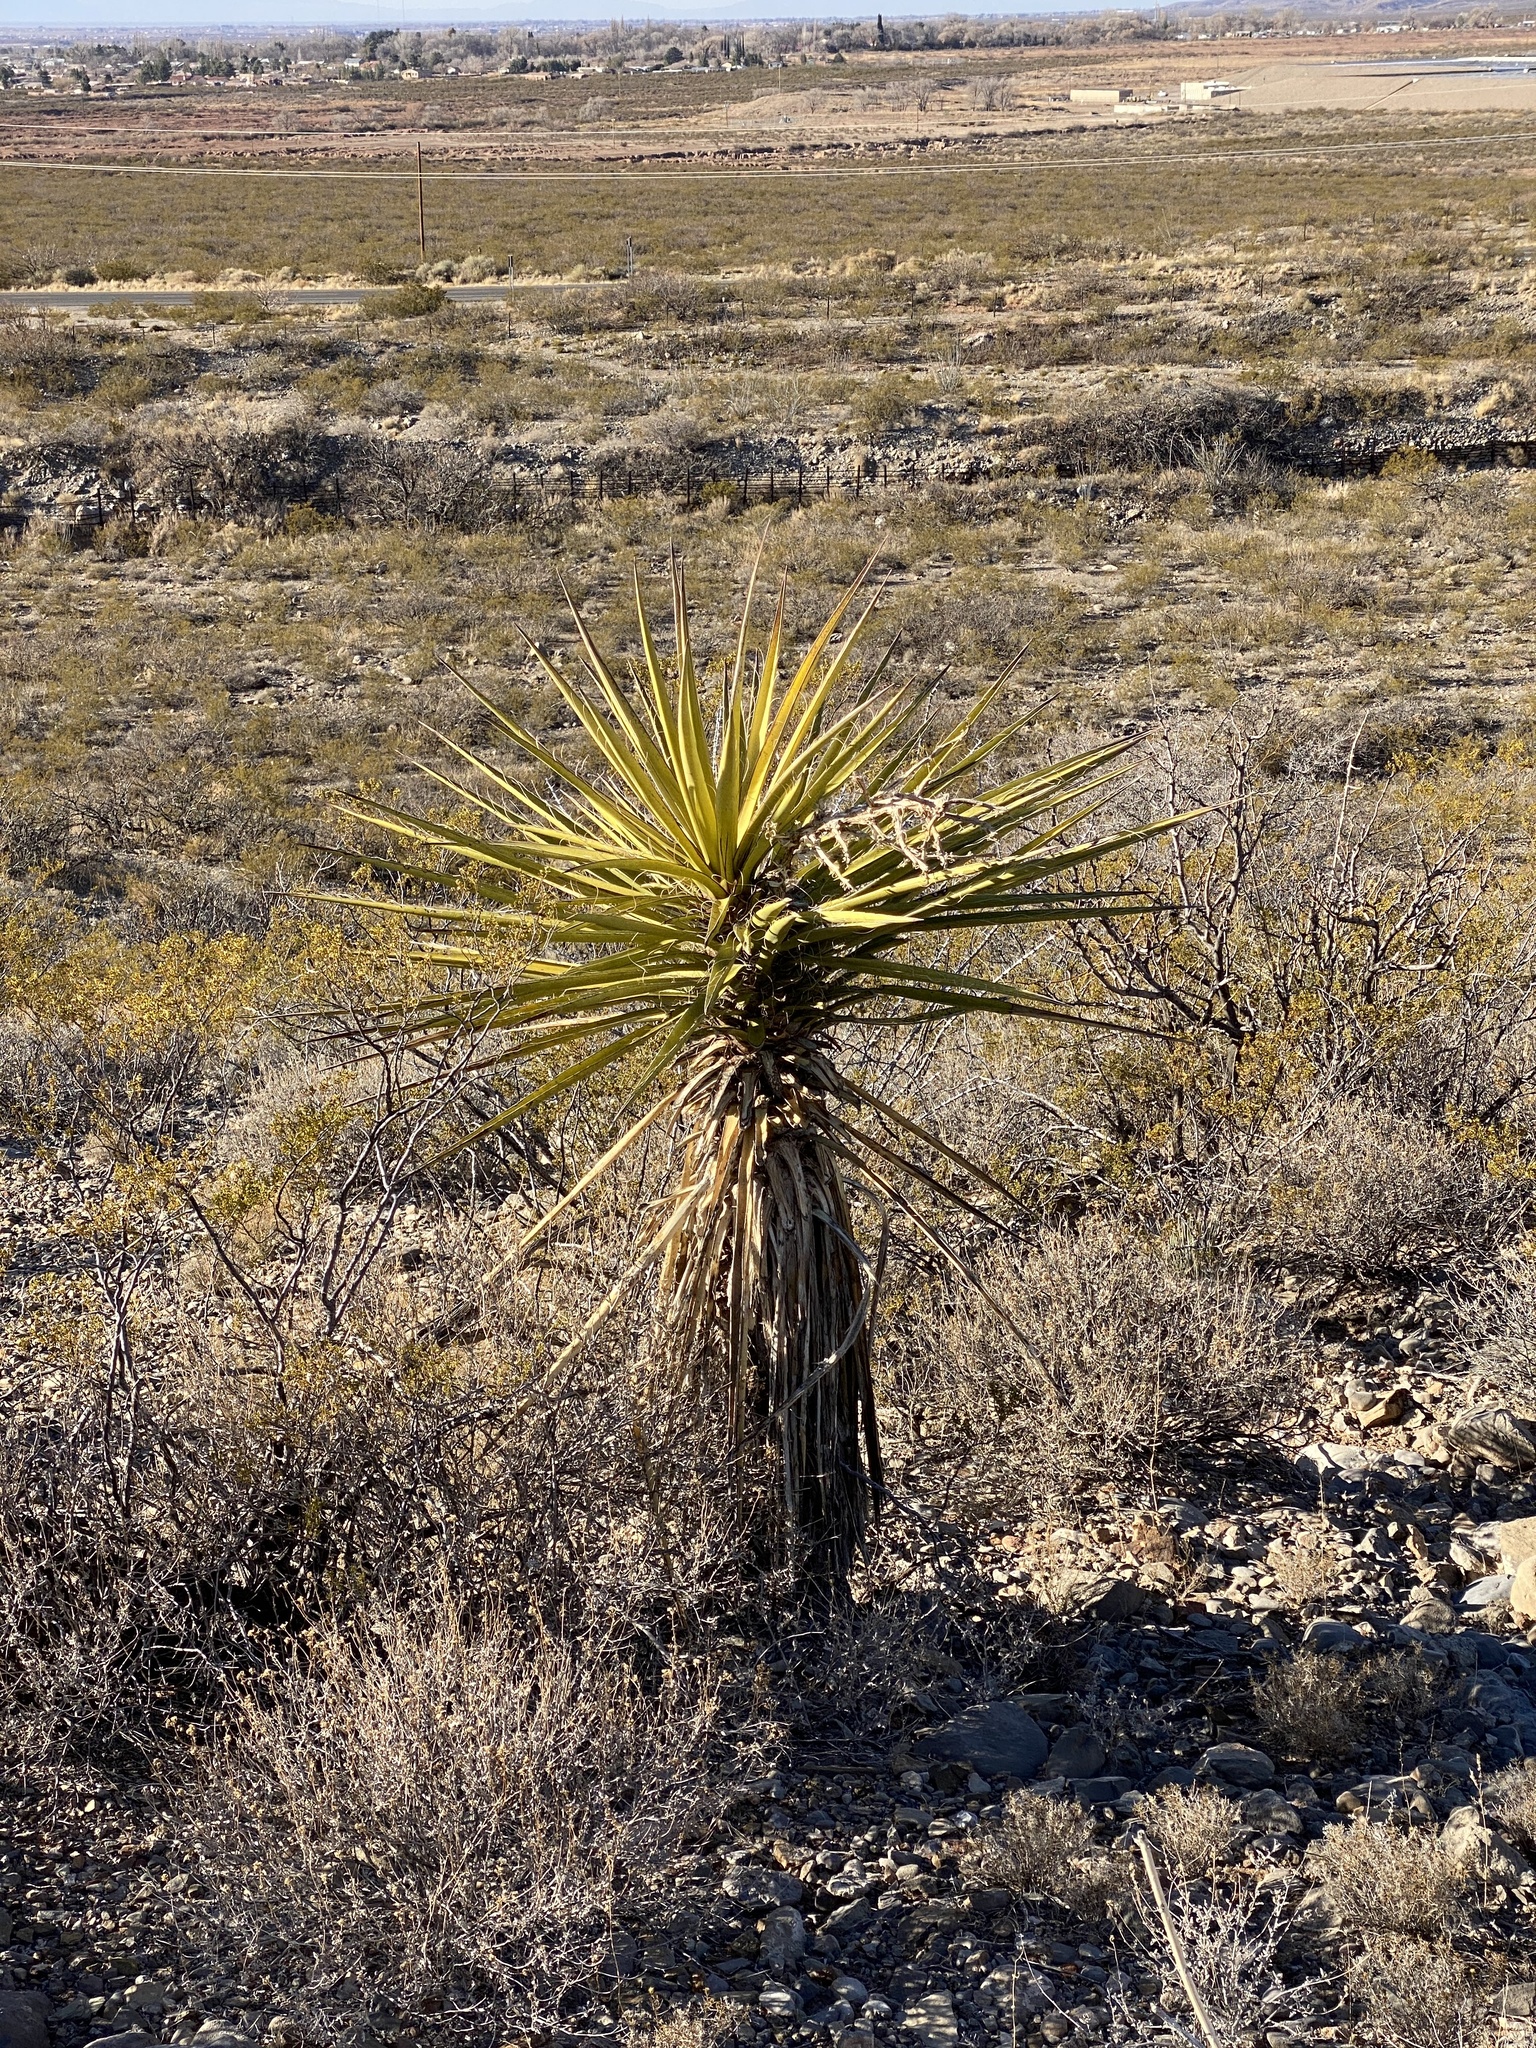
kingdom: Plantae
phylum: Tracheophyta
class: Liliopsida
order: Asparagales
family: Asparagaceae
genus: Yucca
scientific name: Yucca treculiana
